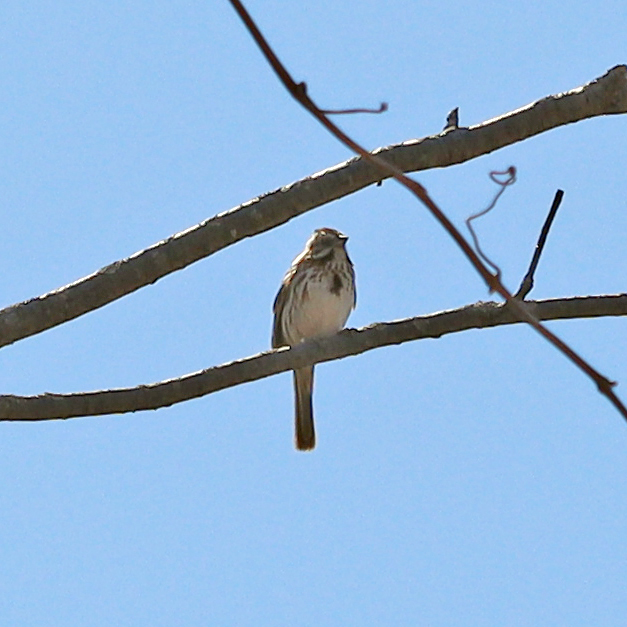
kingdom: Animalia
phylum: Chordata
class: Aves
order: Passeriformes
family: Passerellidae
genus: Melospiza
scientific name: Melospiza melodia
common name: Song sparrow
